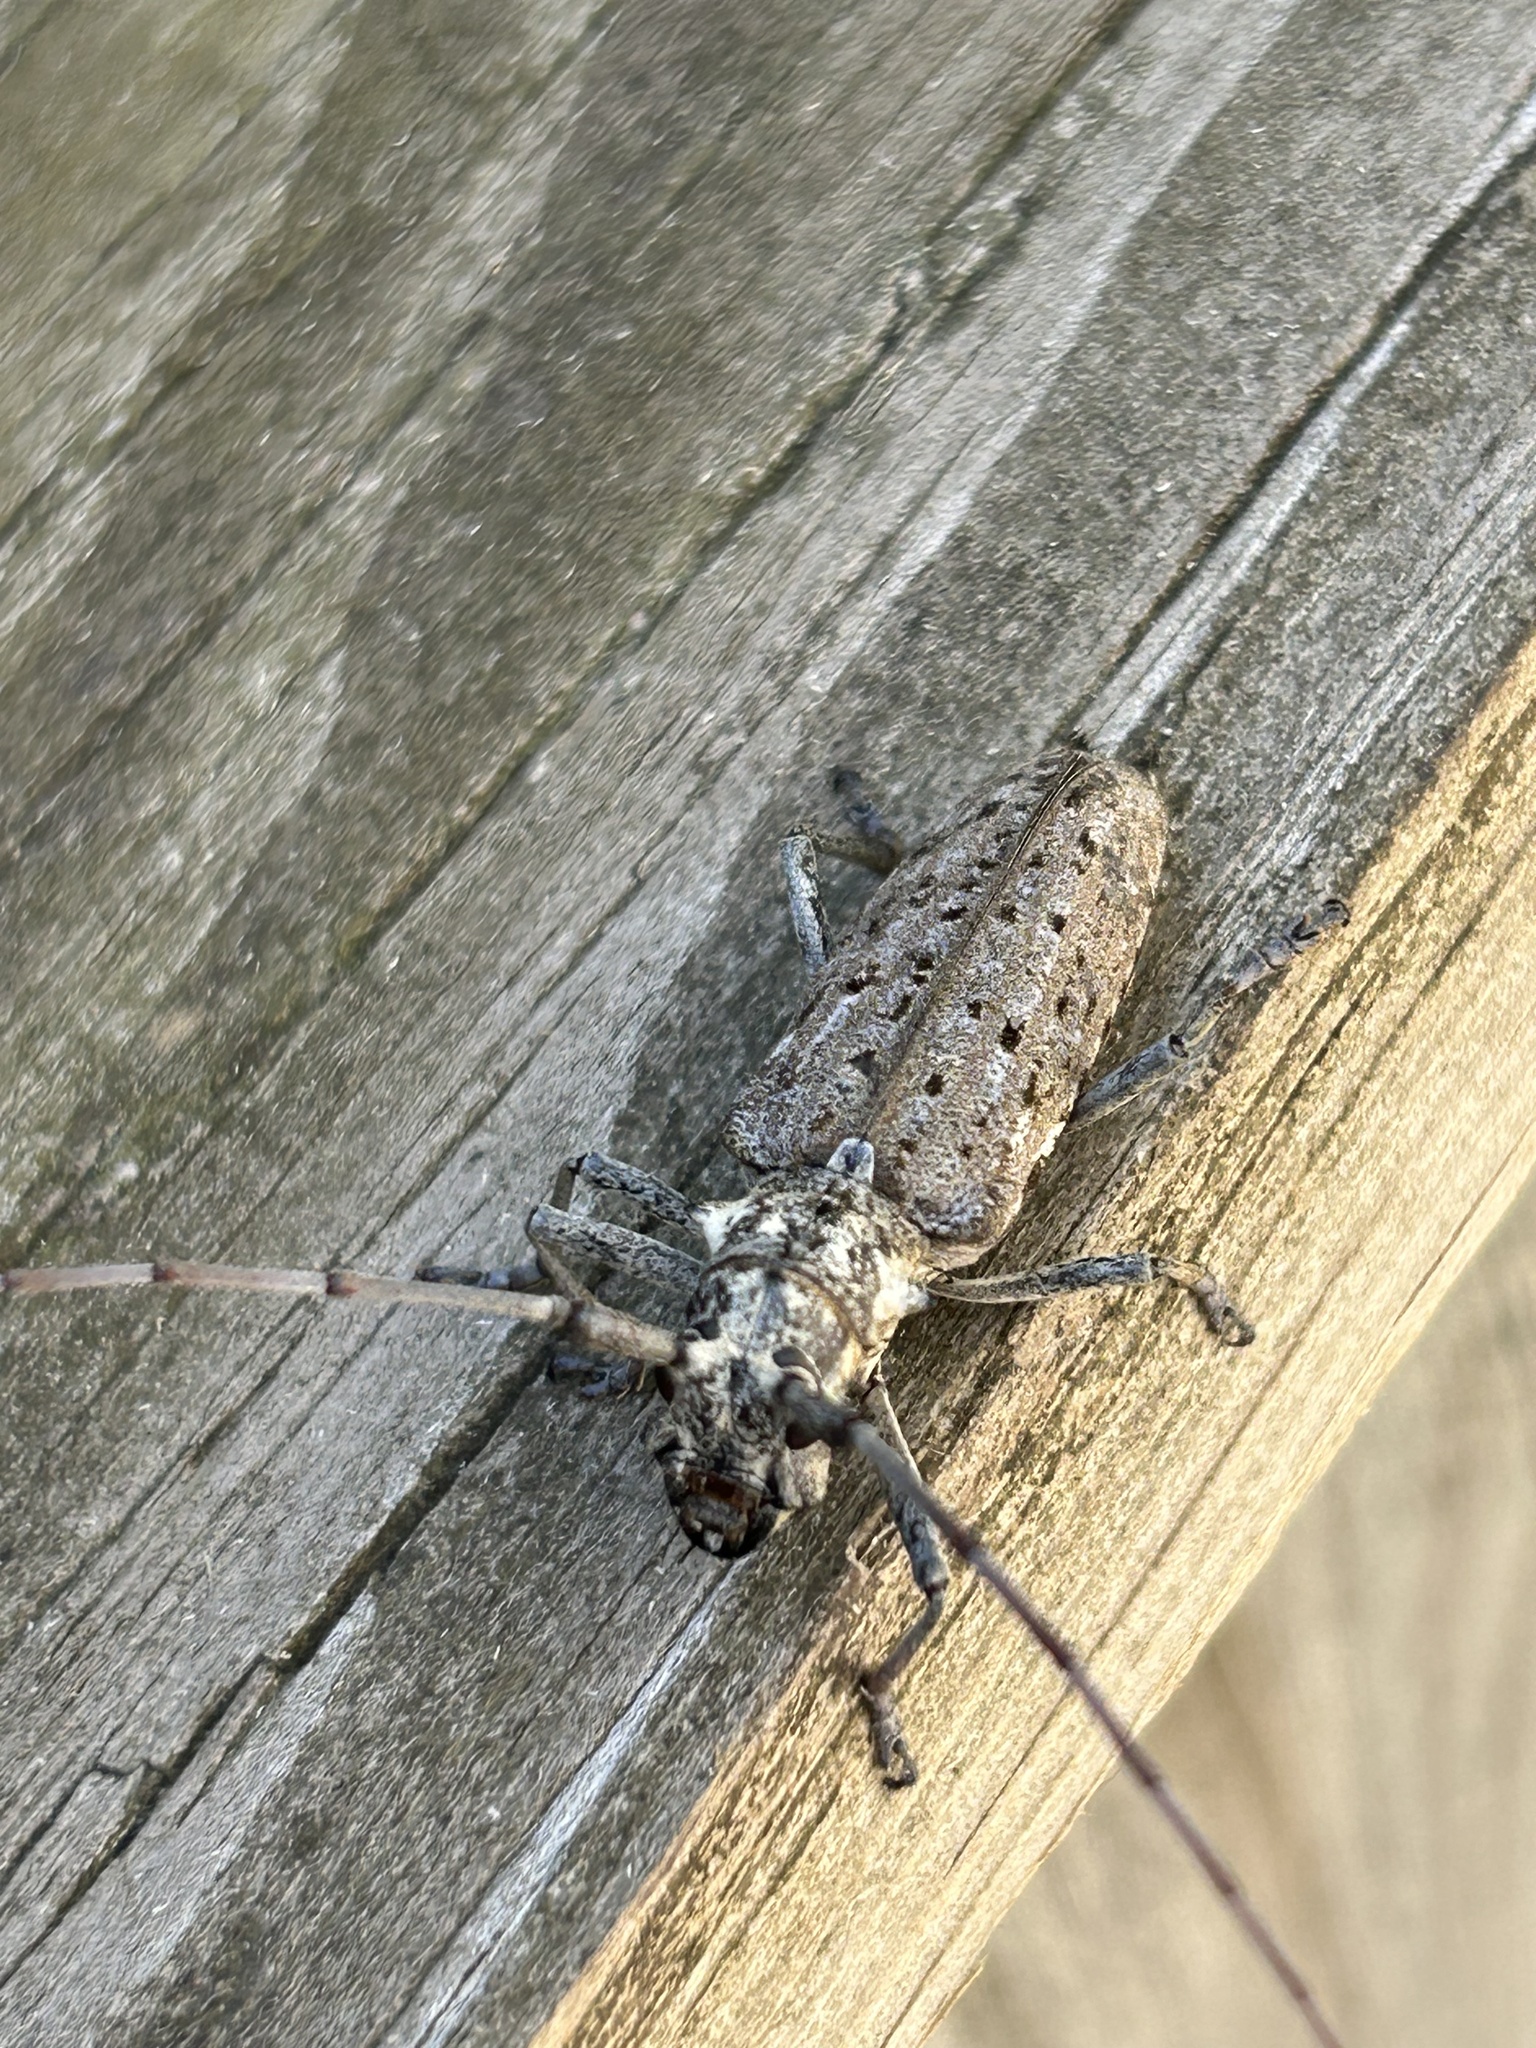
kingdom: Animalia
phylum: Arthropoda
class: Insecta
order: Coleoptera
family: Cerambycidae
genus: Monochamus
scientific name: Monochamus notatus
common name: Northeastern pine sawyer beetle
